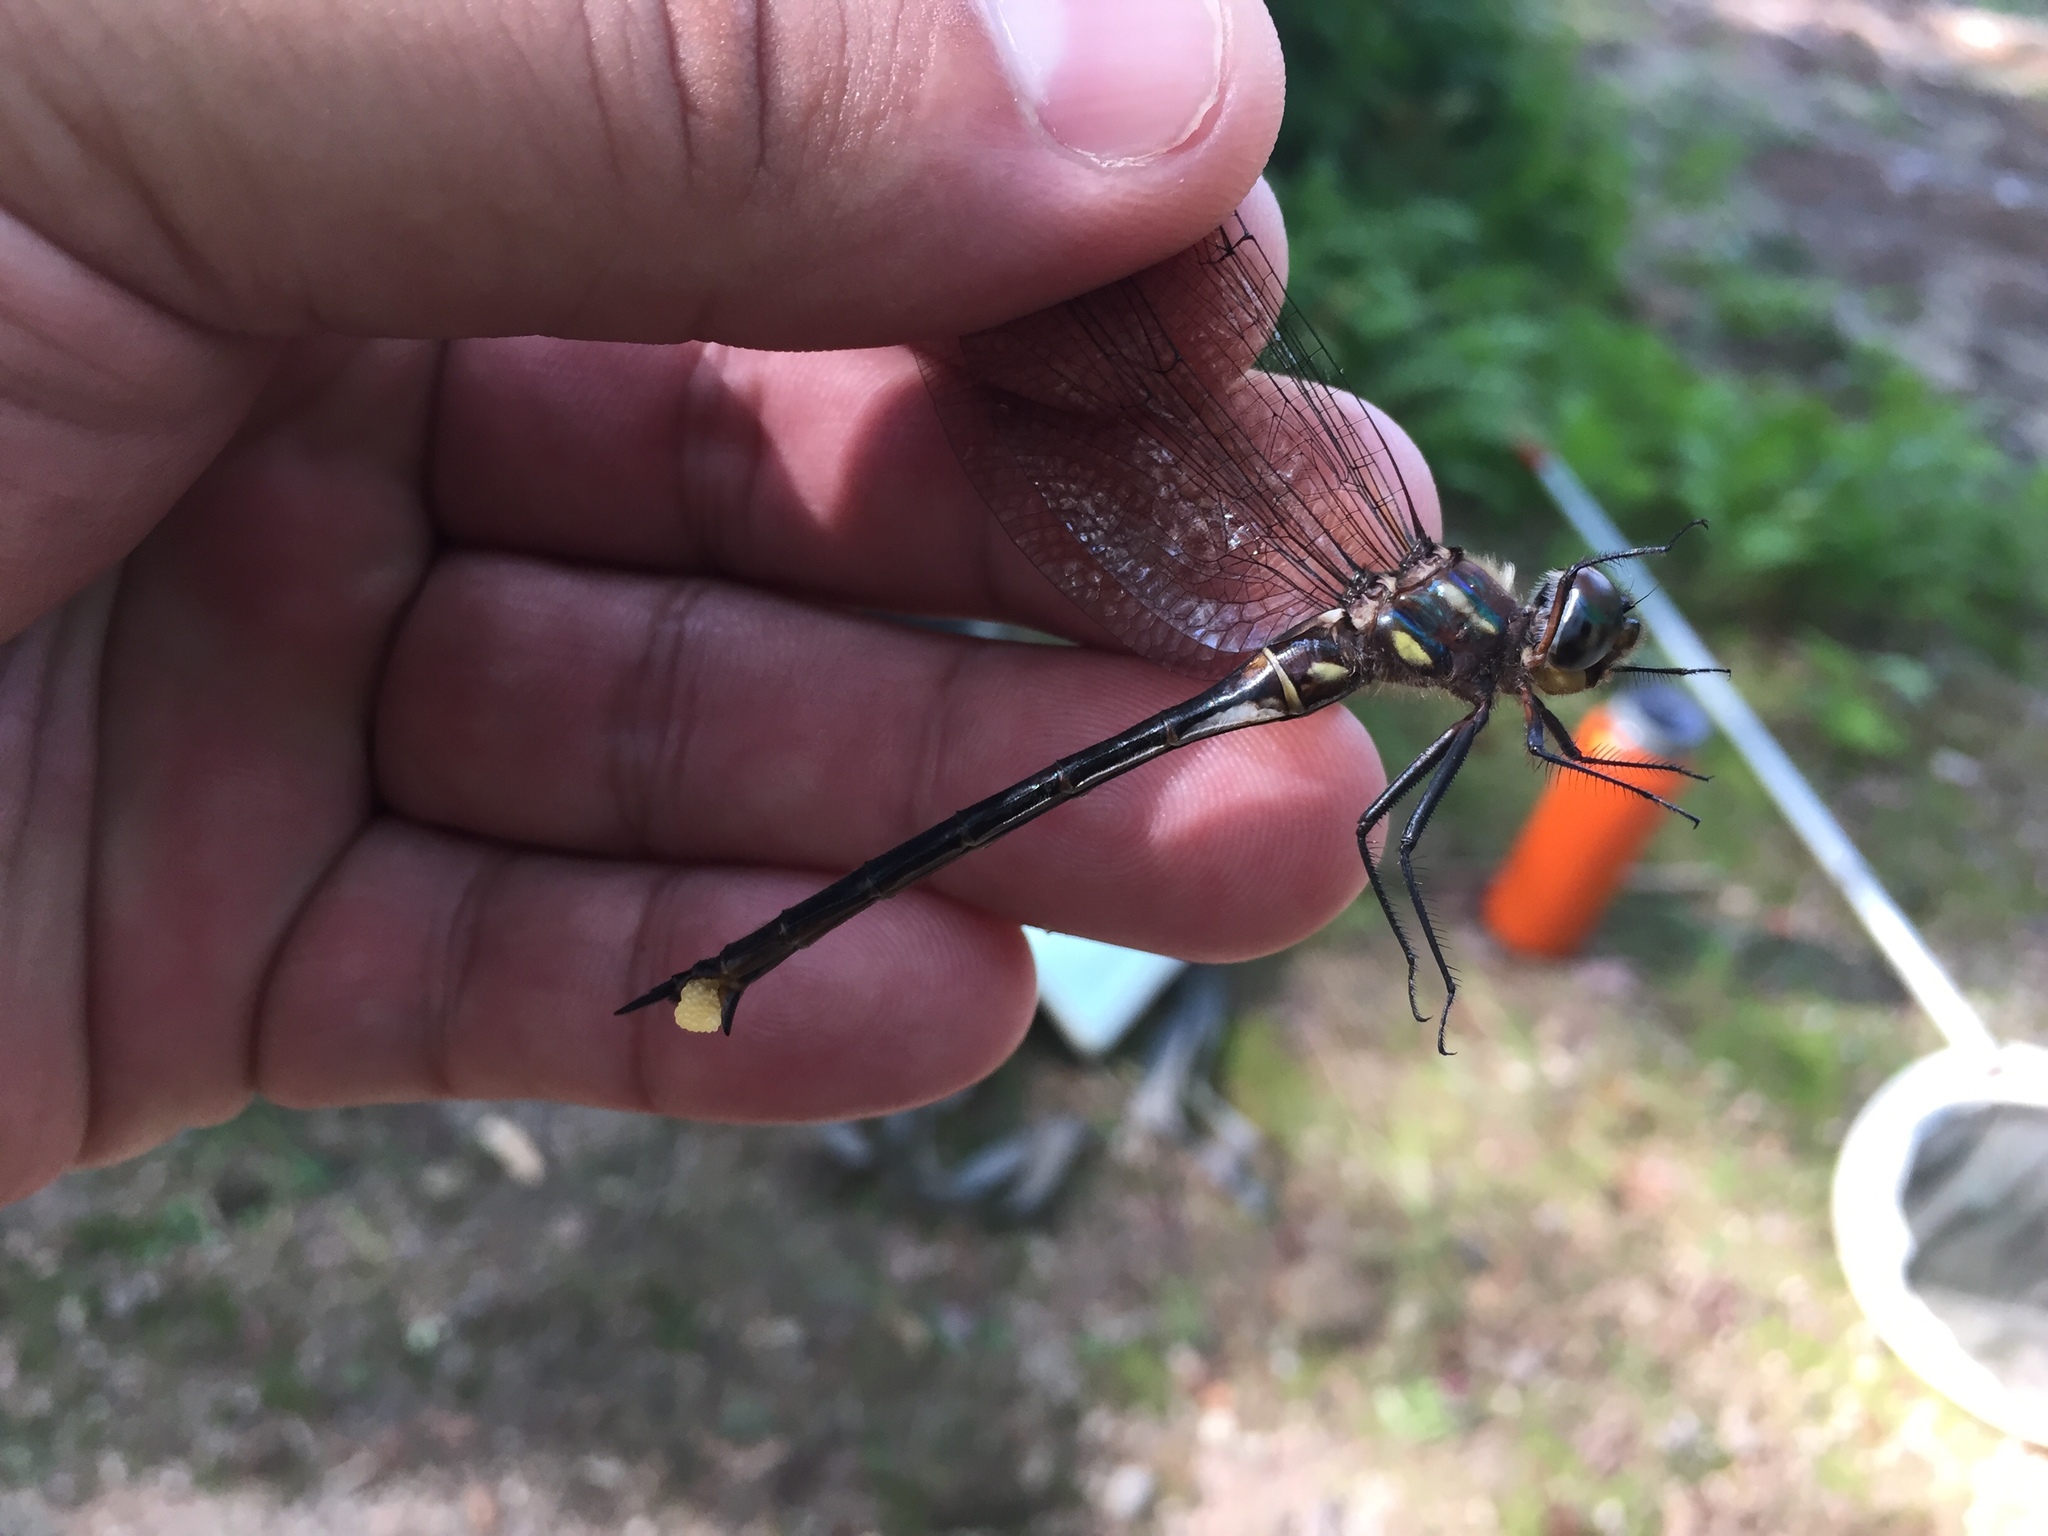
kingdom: Animalia
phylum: Arthropoda
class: Insecta
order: Odonata
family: Corduliidae
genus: Somatochlora
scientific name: Somatochlora tenebrosa
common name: Clamp-tipped emerald
